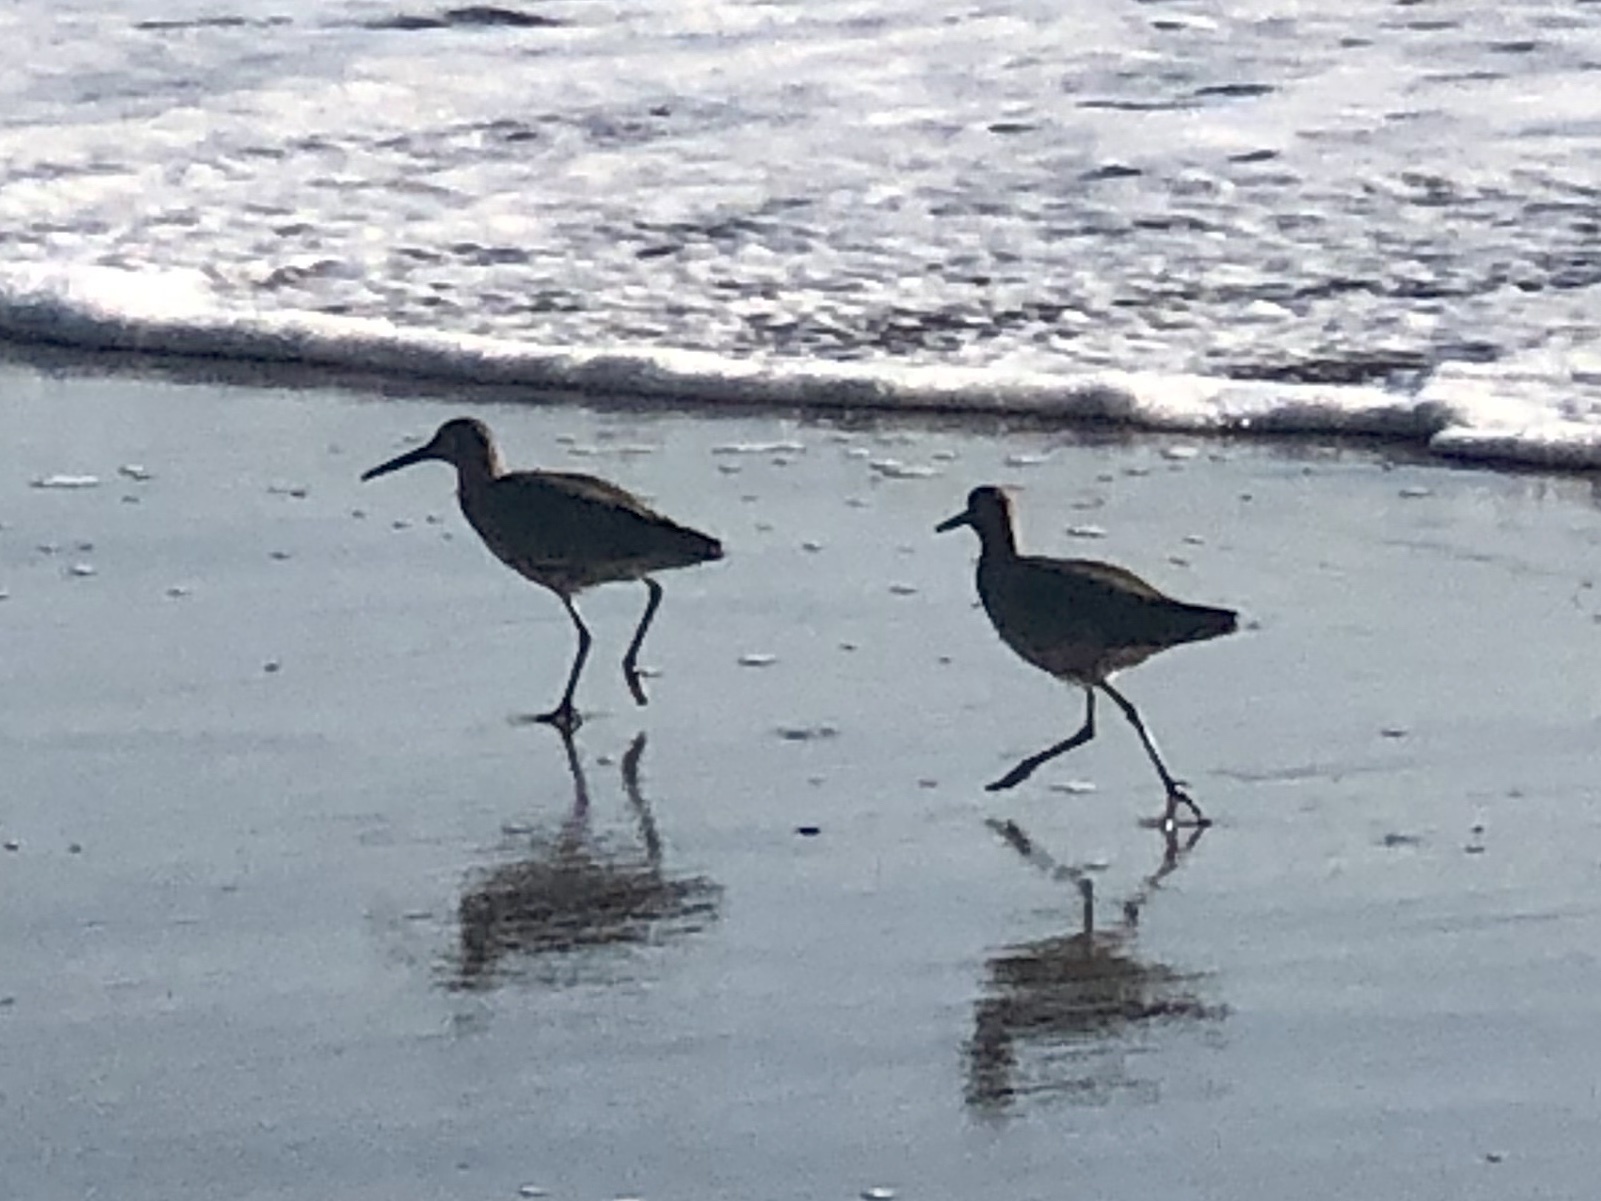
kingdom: Animalia
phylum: Chordata
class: Aves
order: Charadriiformes
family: Scolopacidae
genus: Tringa
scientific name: Tringa semipalmata
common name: Willet
